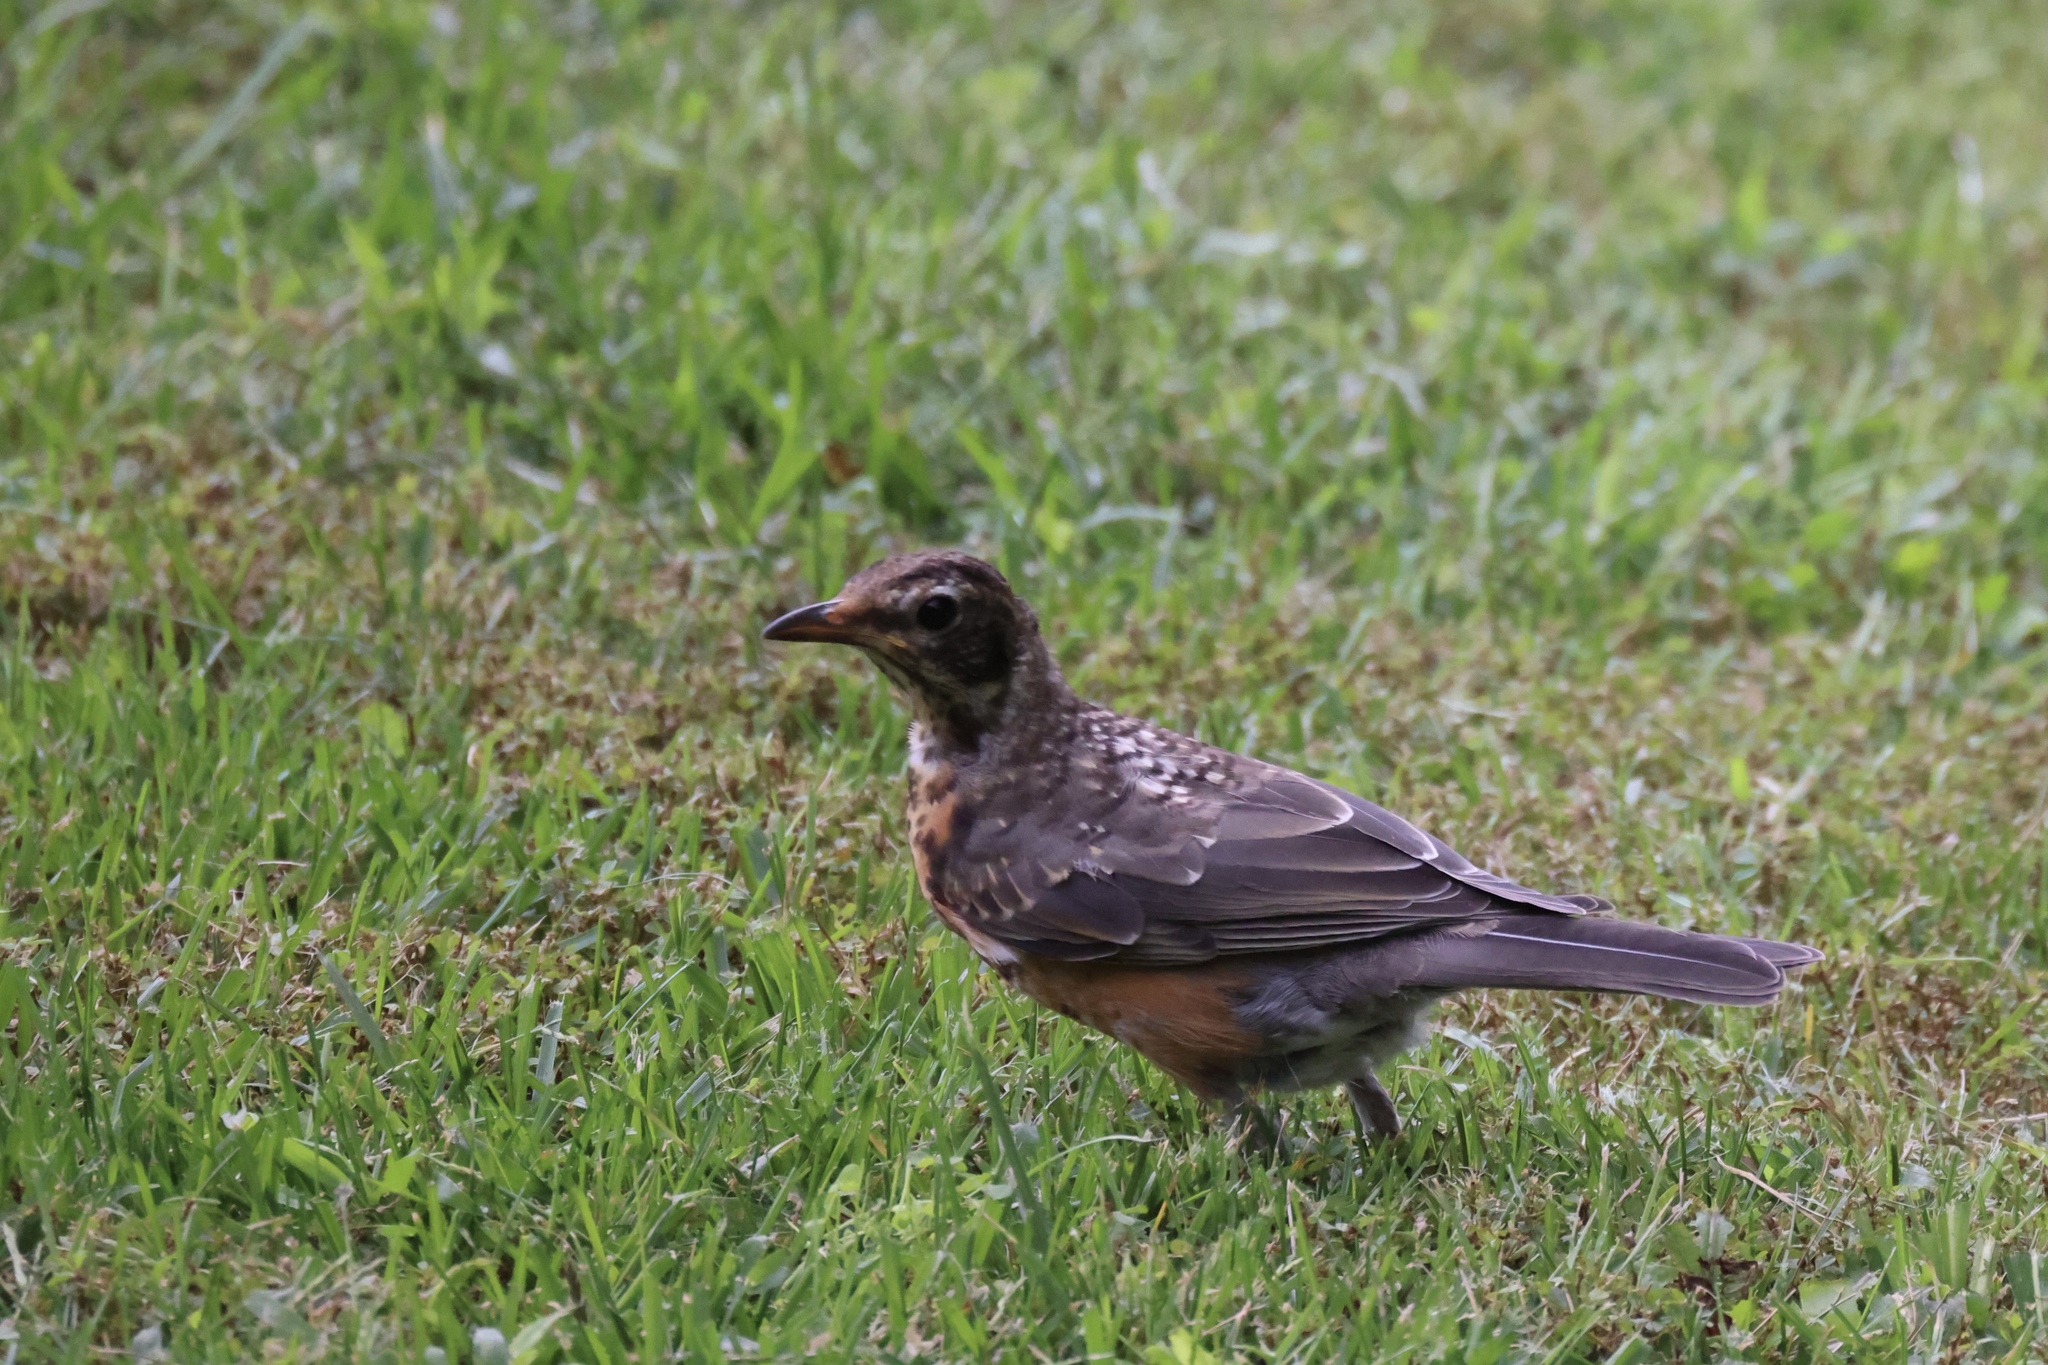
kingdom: Animalia
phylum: Chordata
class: Aves
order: Passeriformes
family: Turdidae
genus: Turdus
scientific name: Turdus migratorius
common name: American robin
